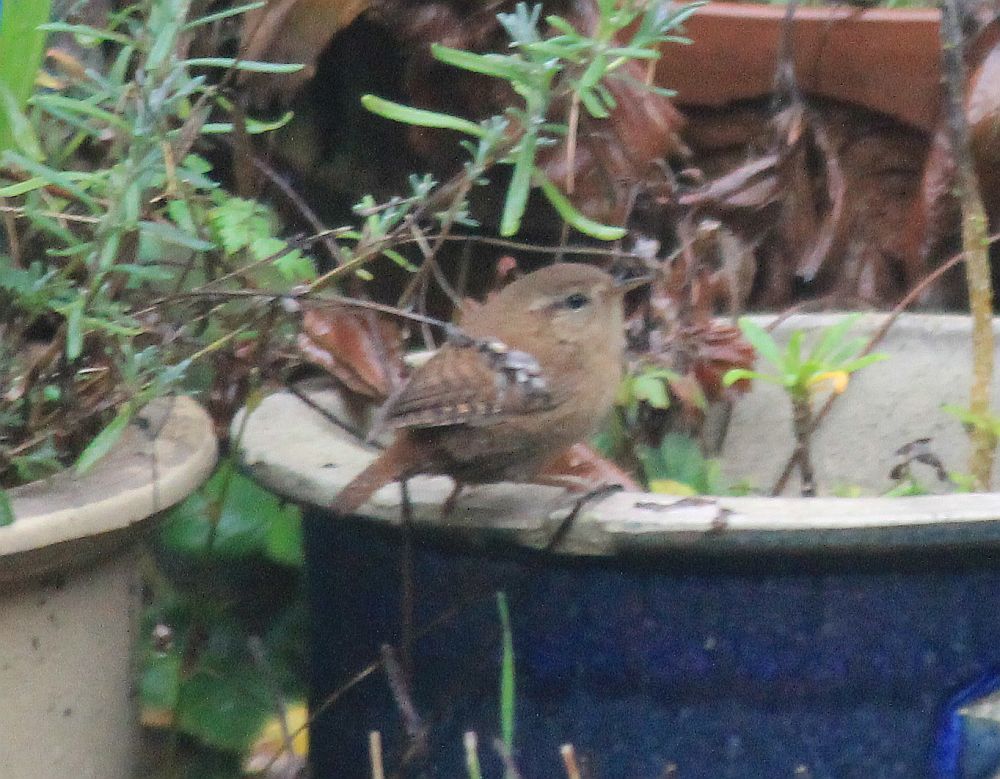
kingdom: Animalia
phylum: Chordata
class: Aves
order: Passeriformes
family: Troglodytidae
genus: Troglodytes
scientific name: Troglodytes troglodytes
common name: Eurasian wren
